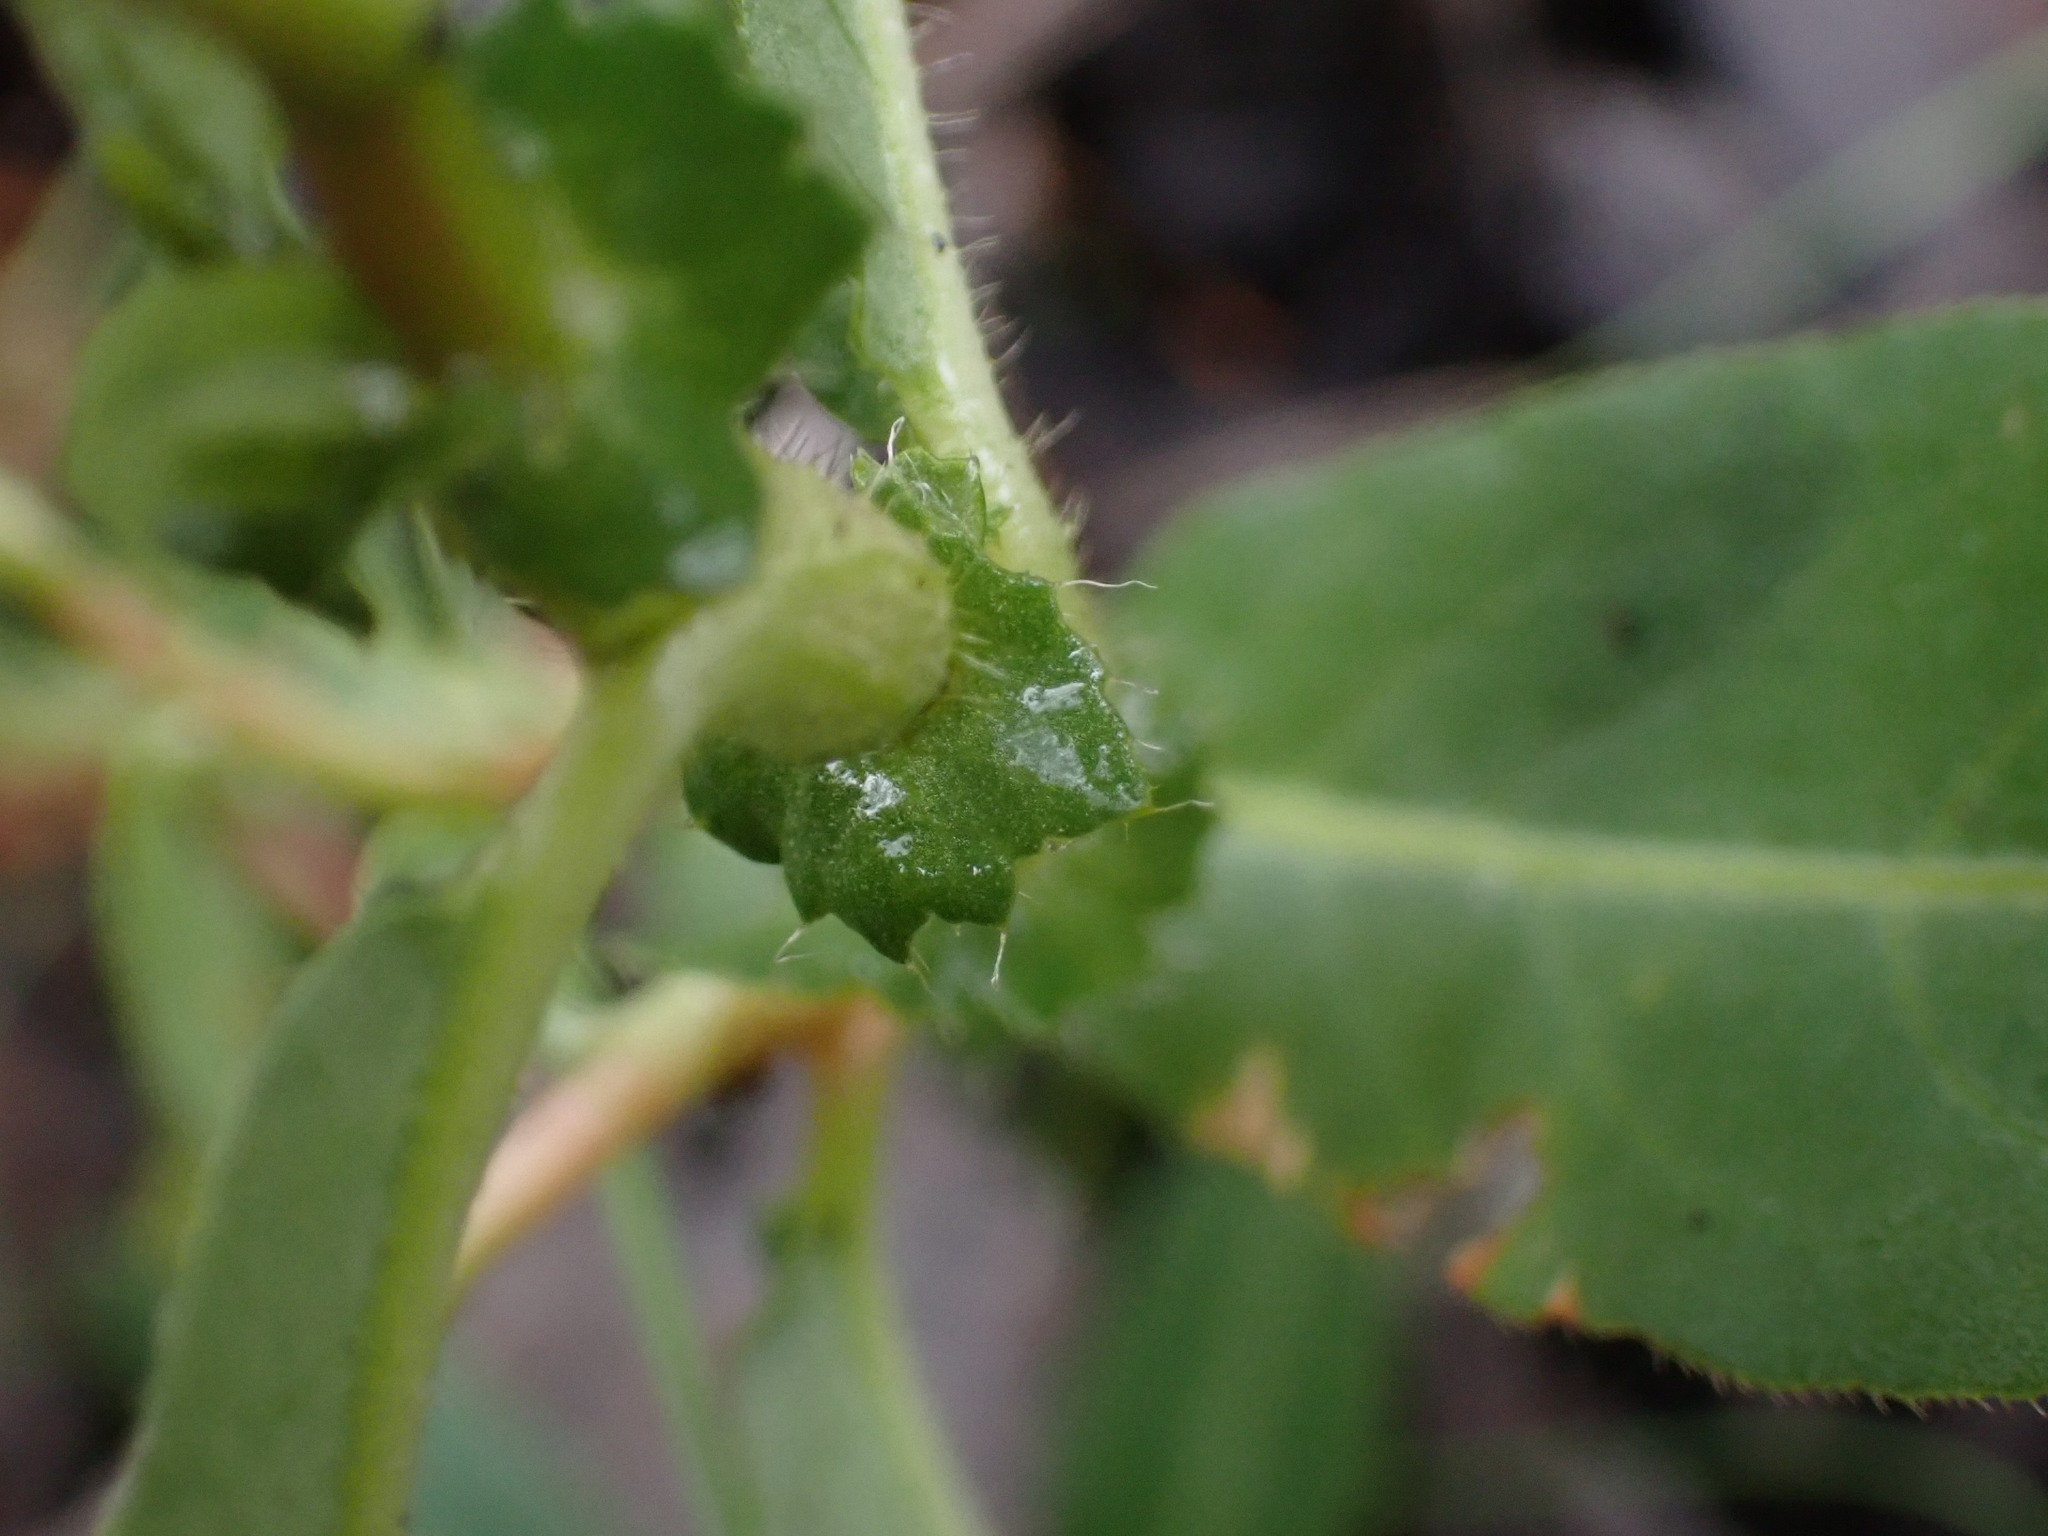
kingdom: Plantae
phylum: Tracheophyta
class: Magnoliopsida
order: Caryophyllales
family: Polygonaceae
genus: Persicaria
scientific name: Persicaria amphibia
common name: Amphibious bistort
